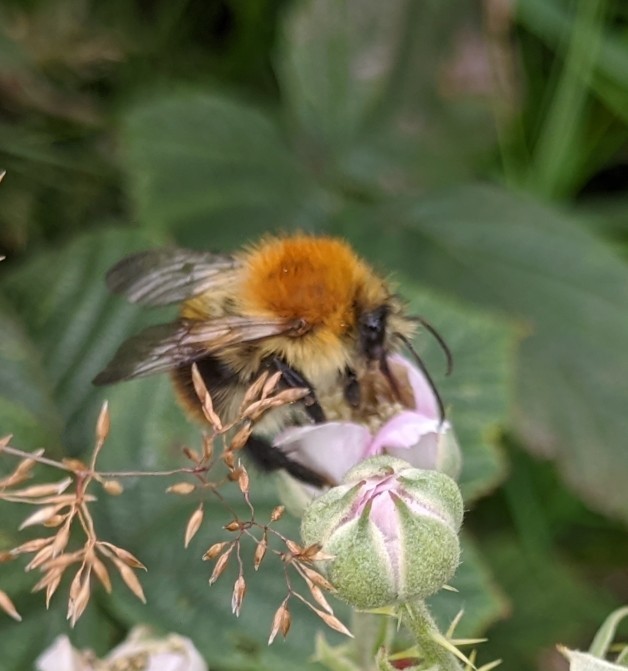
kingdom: Animalia
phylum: Arthropoda
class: Insecta
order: Hymenoptera
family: Apidae
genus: Bombus
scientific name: Bombus pascuorum
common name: Common carder bee
